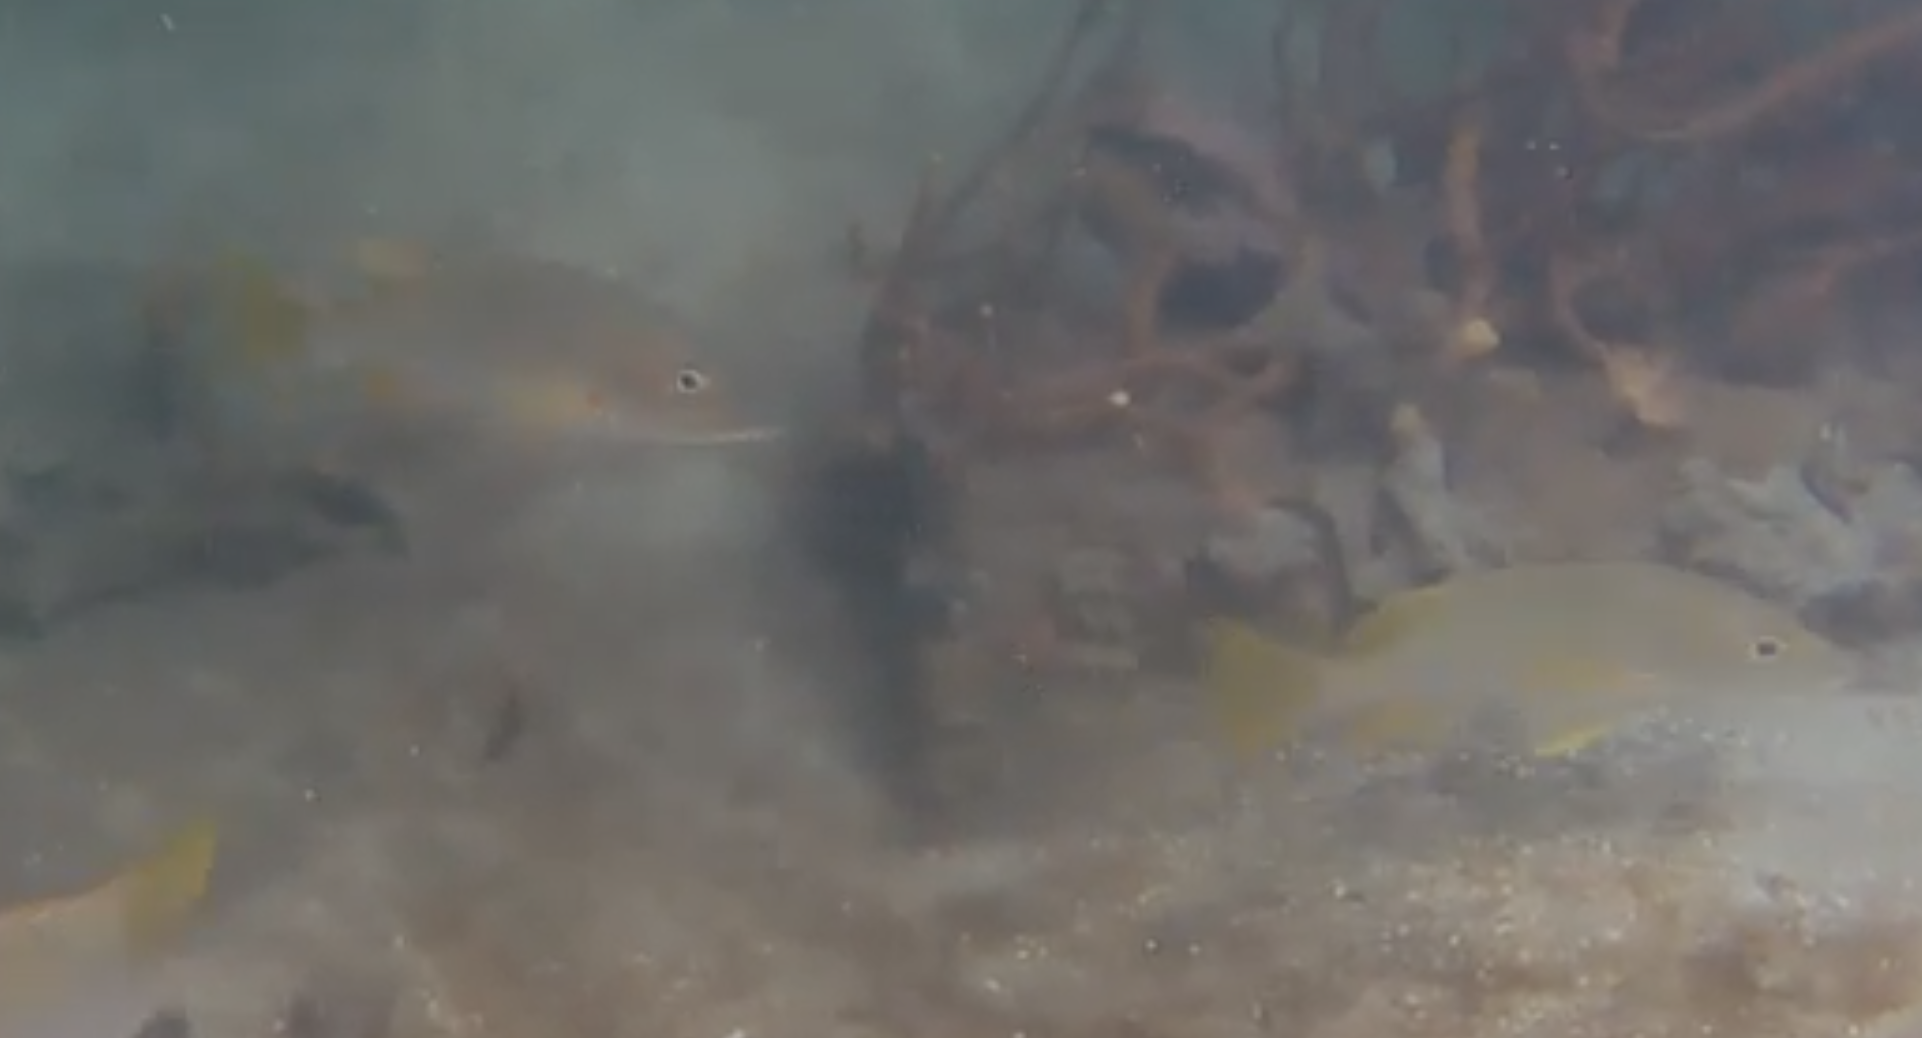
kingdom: Animalia
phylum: Chordata
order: Perciformes
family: Lutjanidae
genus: Lutjanus
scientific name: Lutjanus apodus
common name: Schoolmaster
